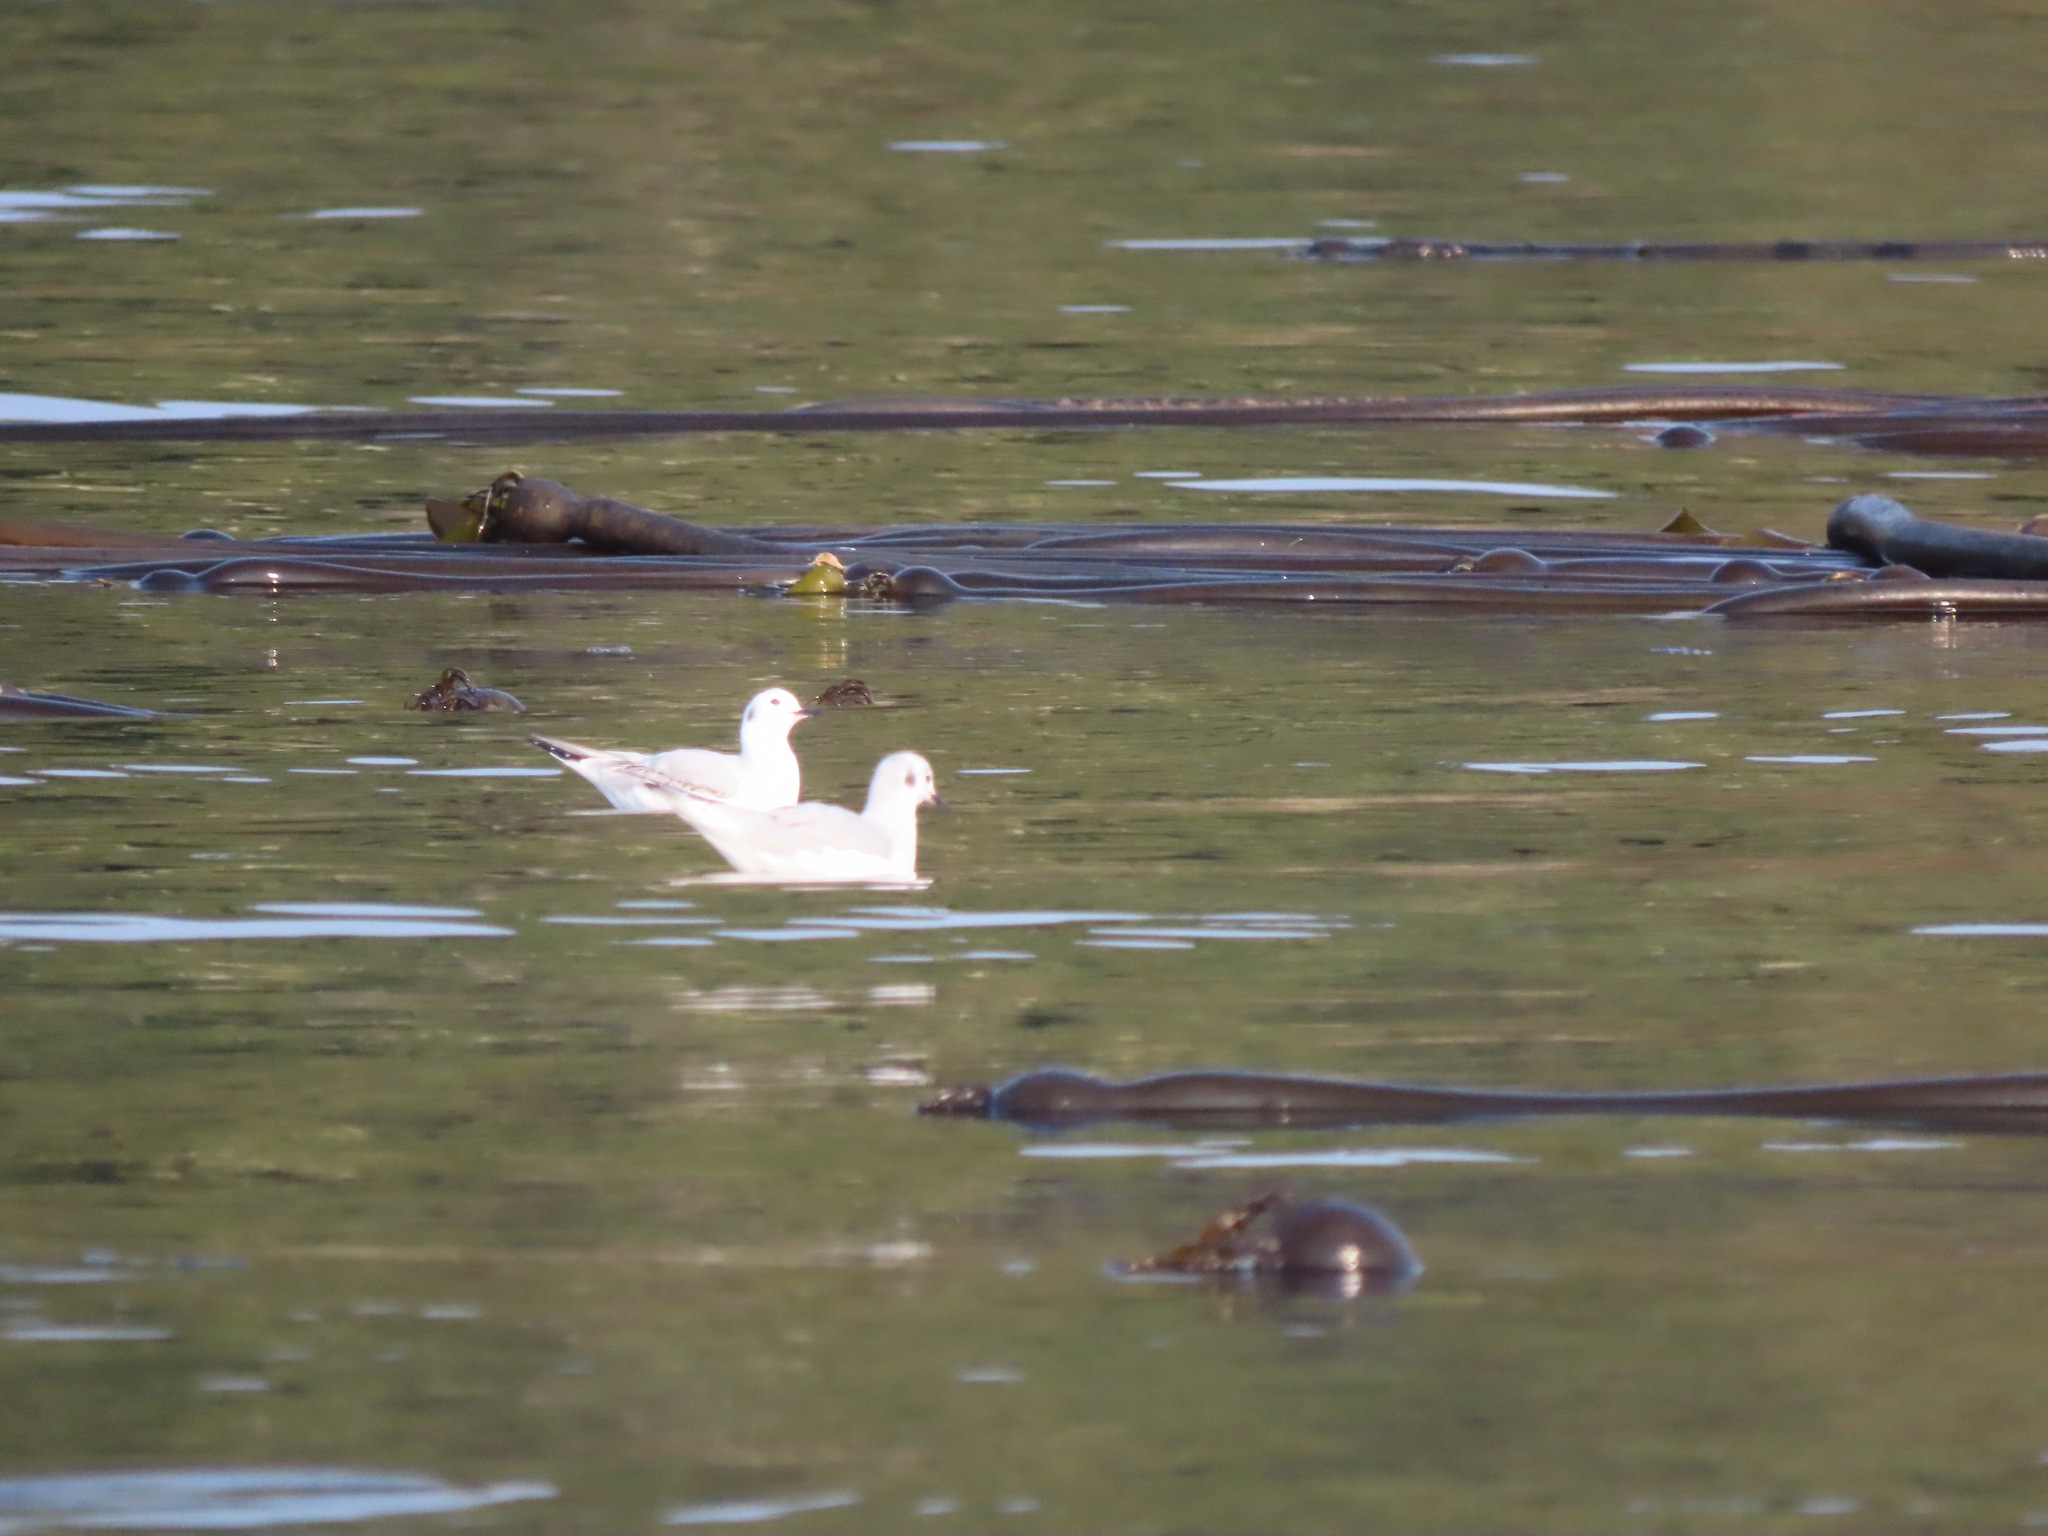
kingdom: Animalia
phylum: Chordata
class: Aves
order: Charadriiformes
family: Laridae
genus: Chroicocephalus
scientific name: Chroicocephalus philadelphia
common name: Bonaparte's gull
